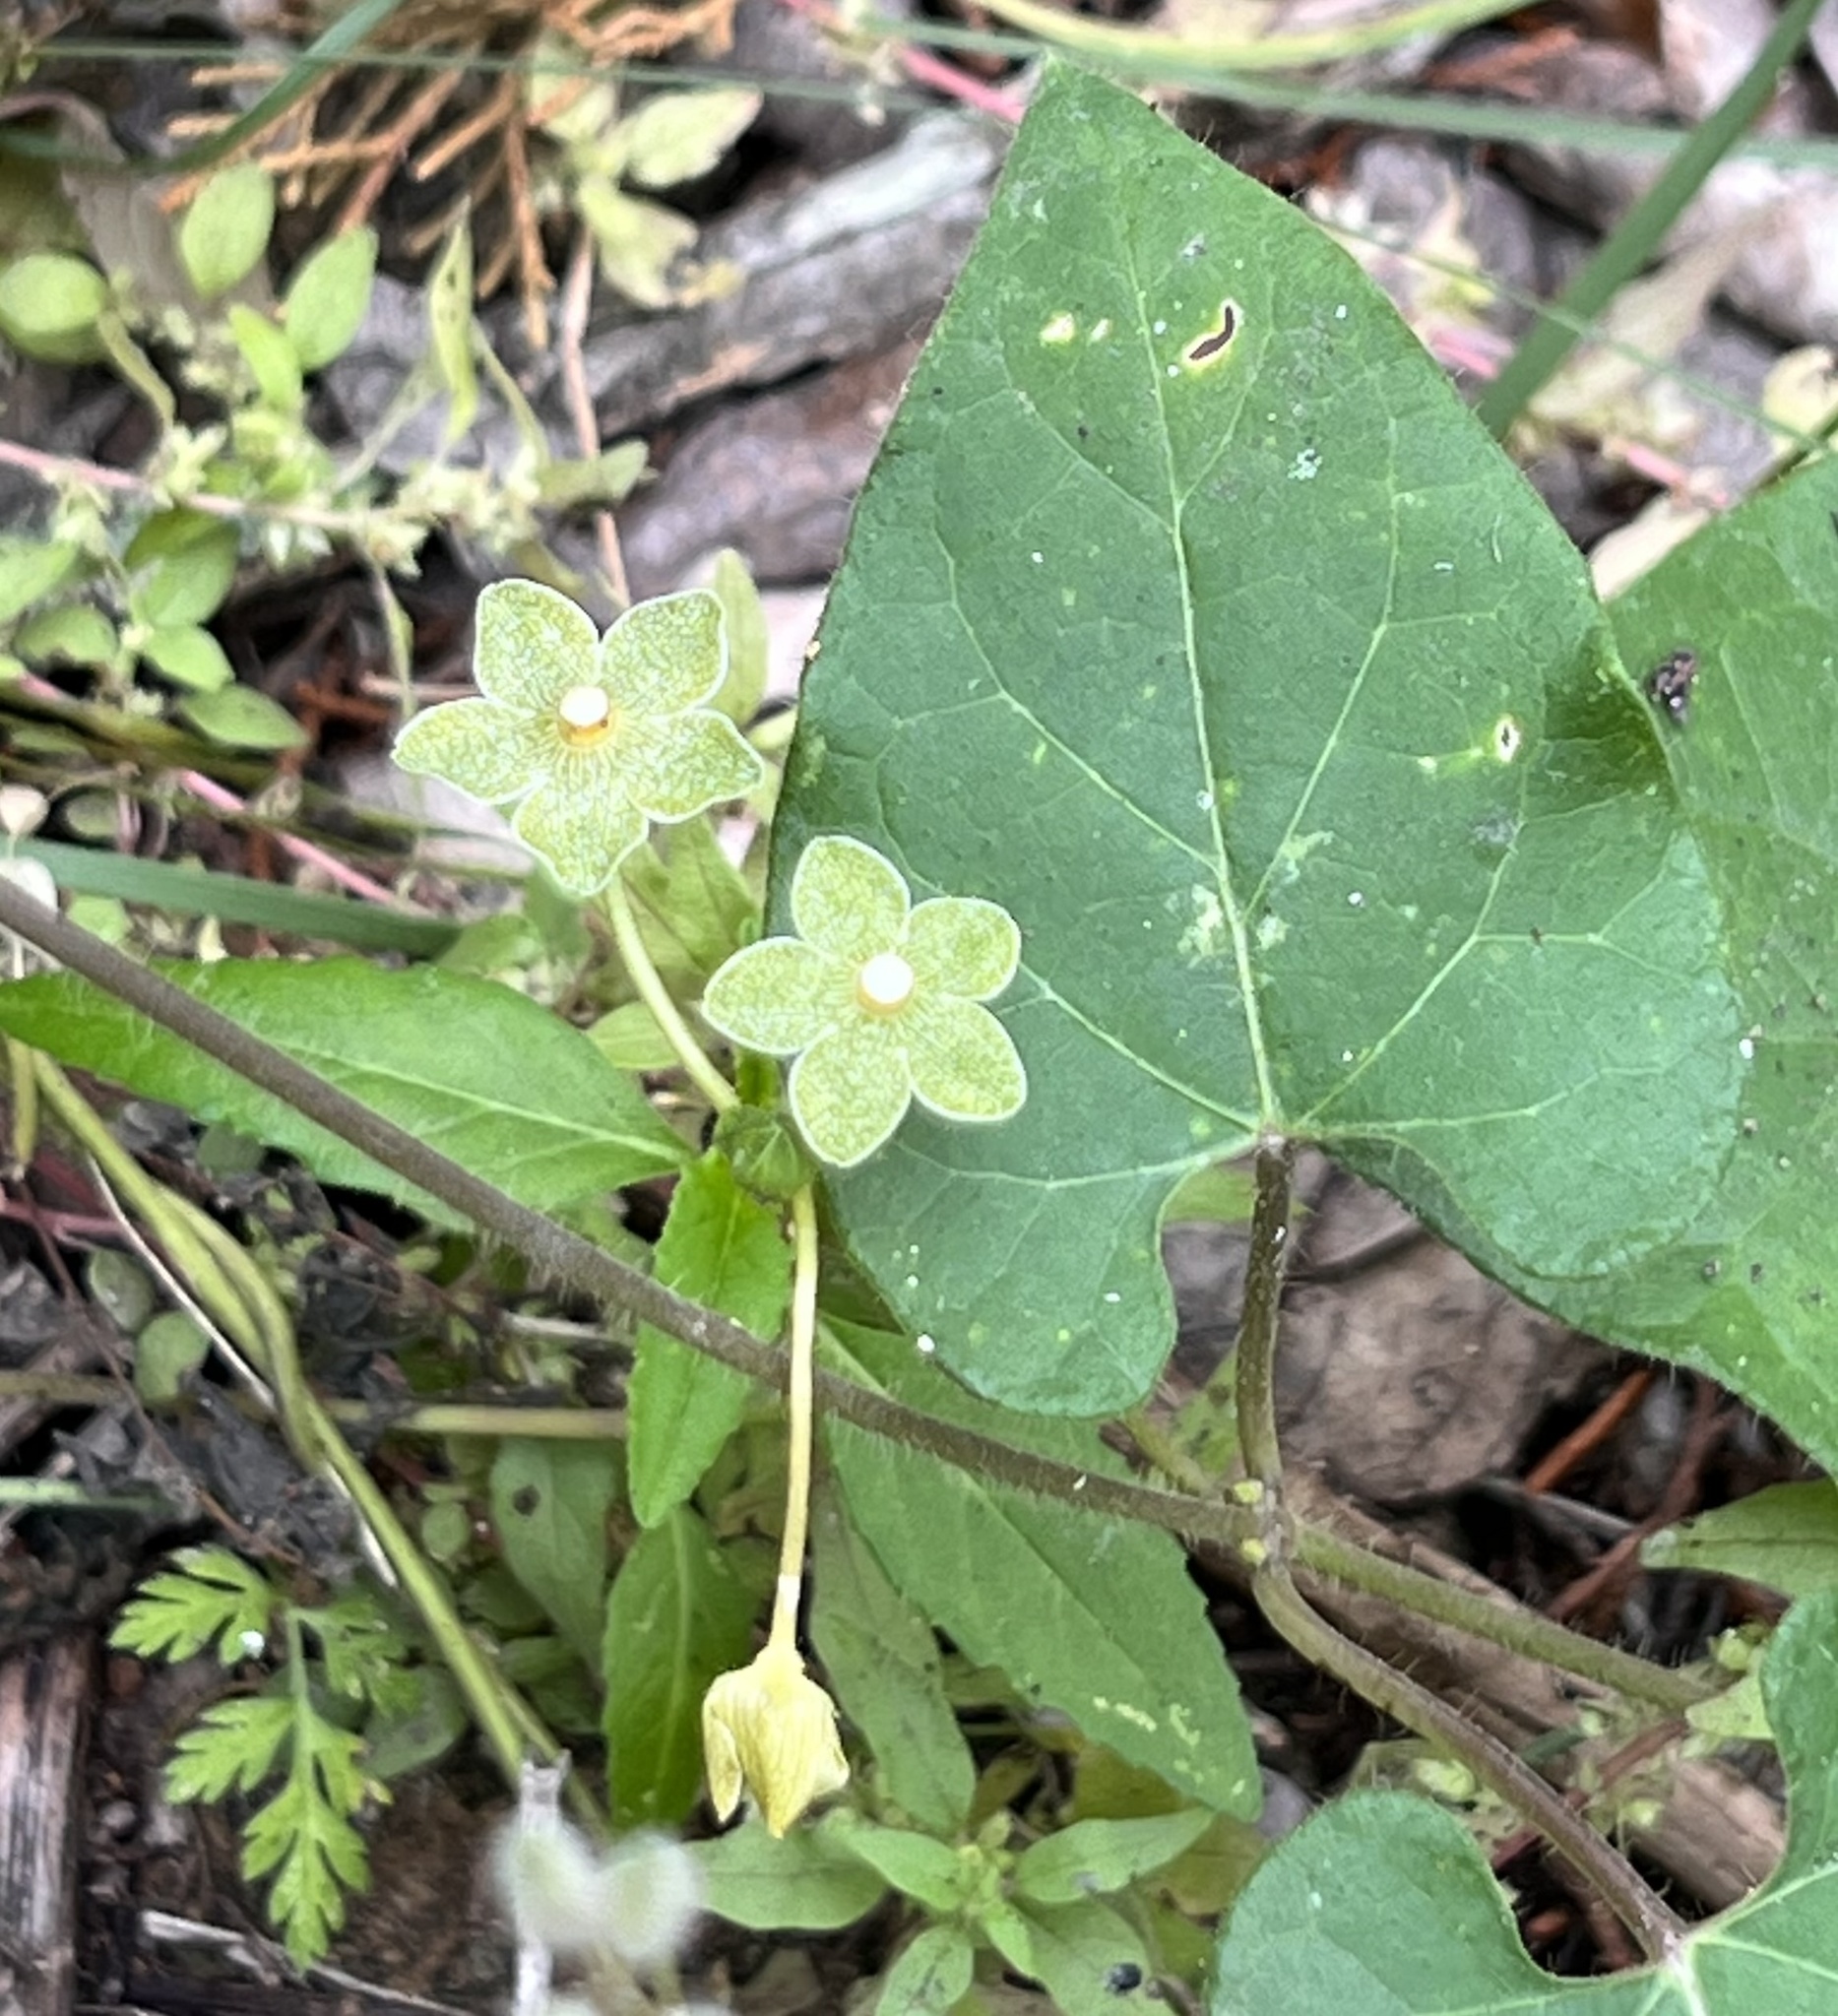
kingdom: Plantae
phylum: Tracheophyta
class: Magnoliopsida
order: Gentianales
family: Apocynaceae
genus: Dictyanthus
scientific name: Dictyanthus reticulatus
